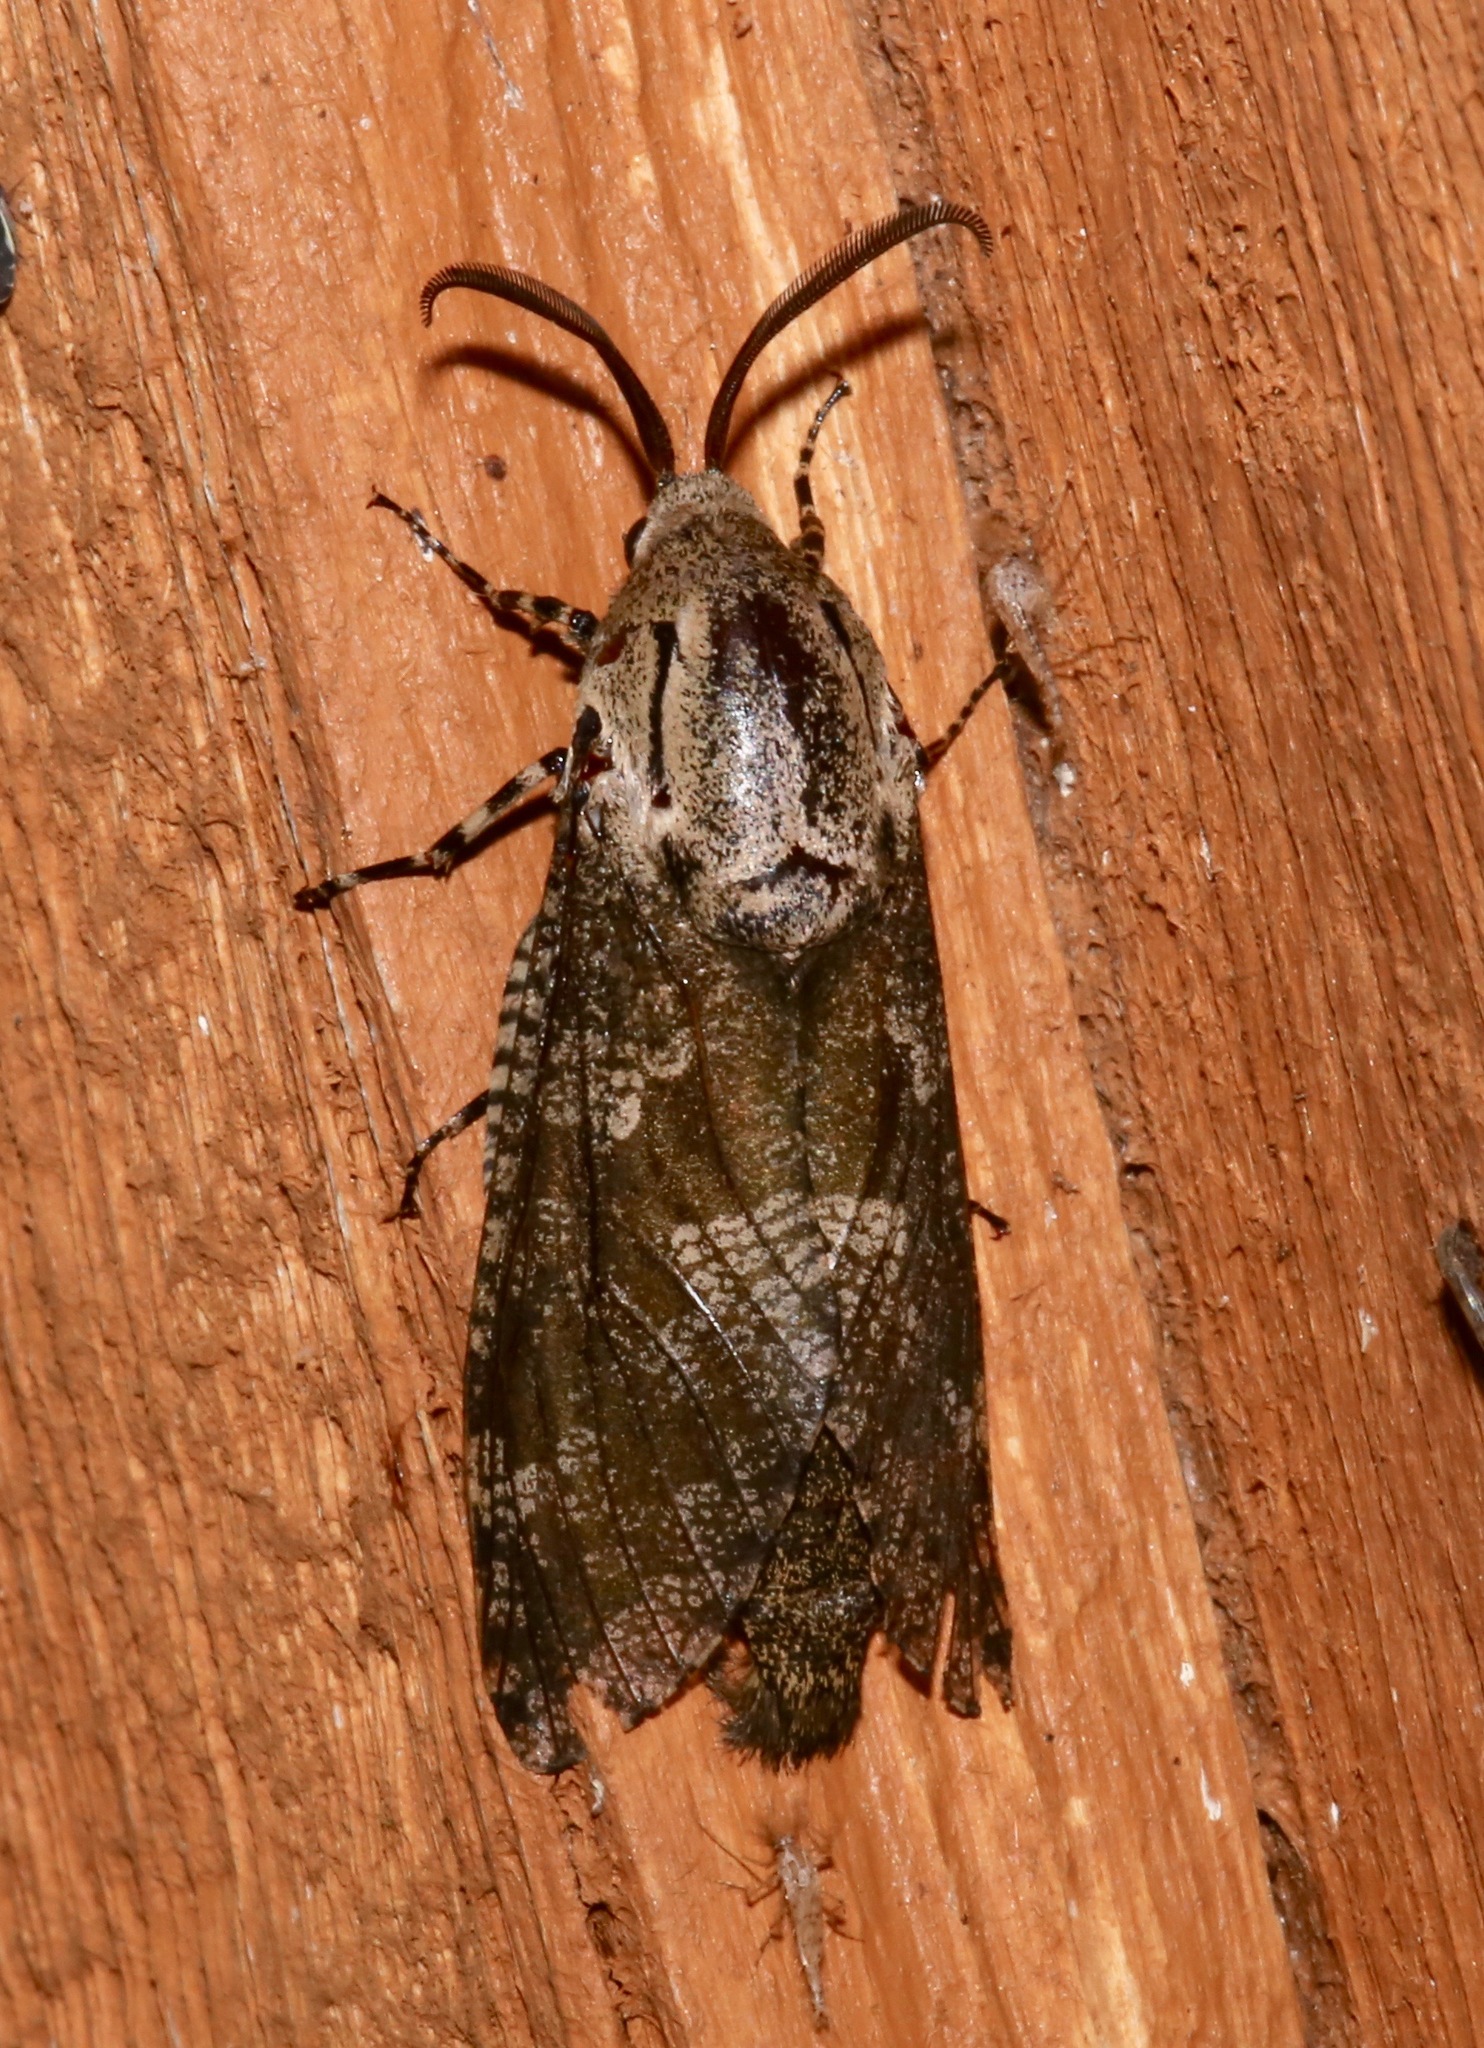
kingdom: Animalia
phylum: Arthropoda
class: Insecta
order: Lepidoptera
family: Cossidae
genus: Prionoxystus
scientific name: Prionoxystus robiniae
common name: Carpenterworm
